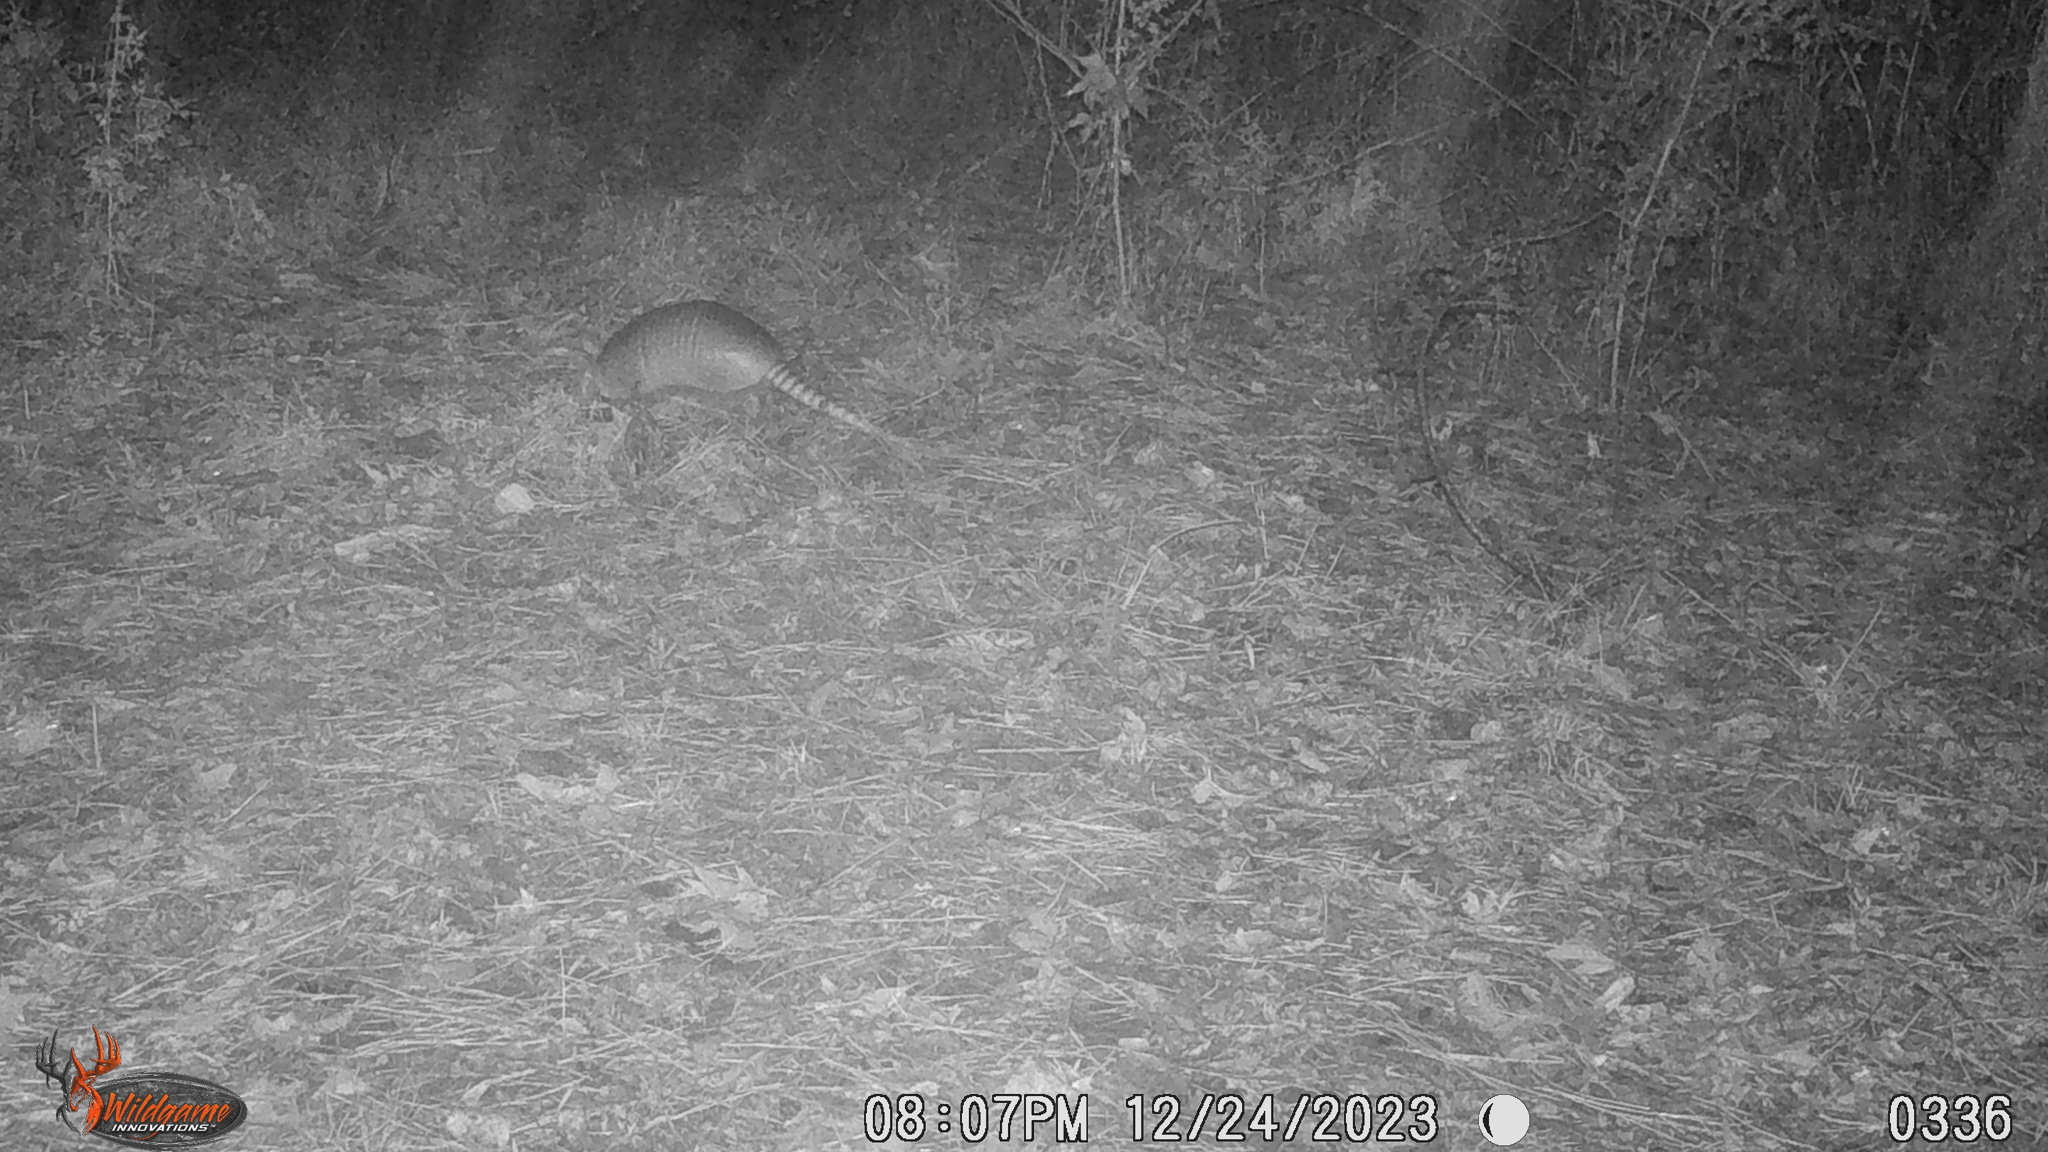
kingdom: Animalia
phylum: Chordata
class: Mammalia
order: Cingulata
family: Dasypodidae
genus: Dasypus
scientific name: Dasypus novemcinctus
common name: Nine-banded armadillo
